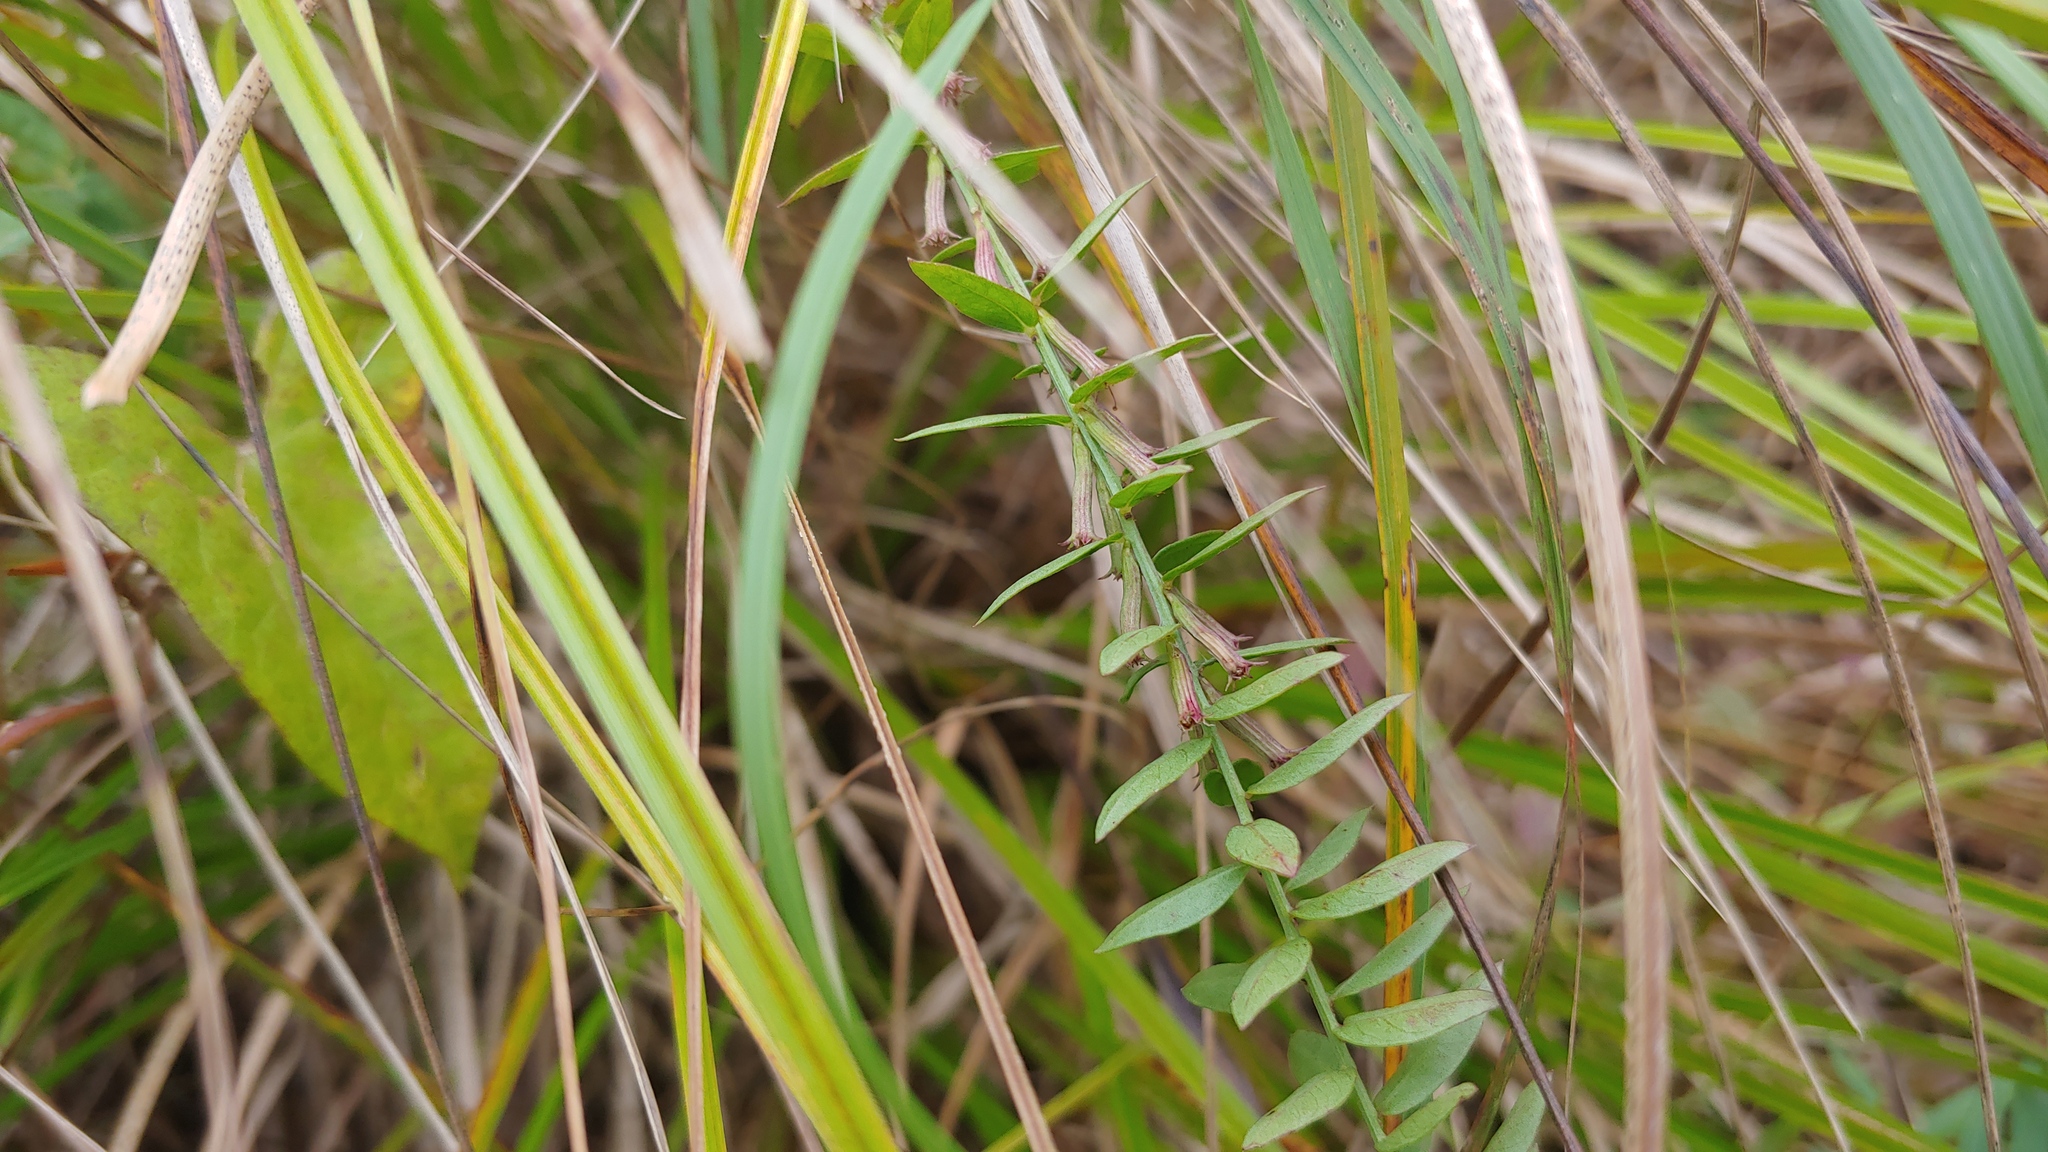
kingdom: Plantae
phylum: Tracheophyta
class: Magnoliopsida
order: Myrtales
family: Lythraceae
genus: Lythrum
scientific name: Lythrum alatum
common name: Winged loosestrife
